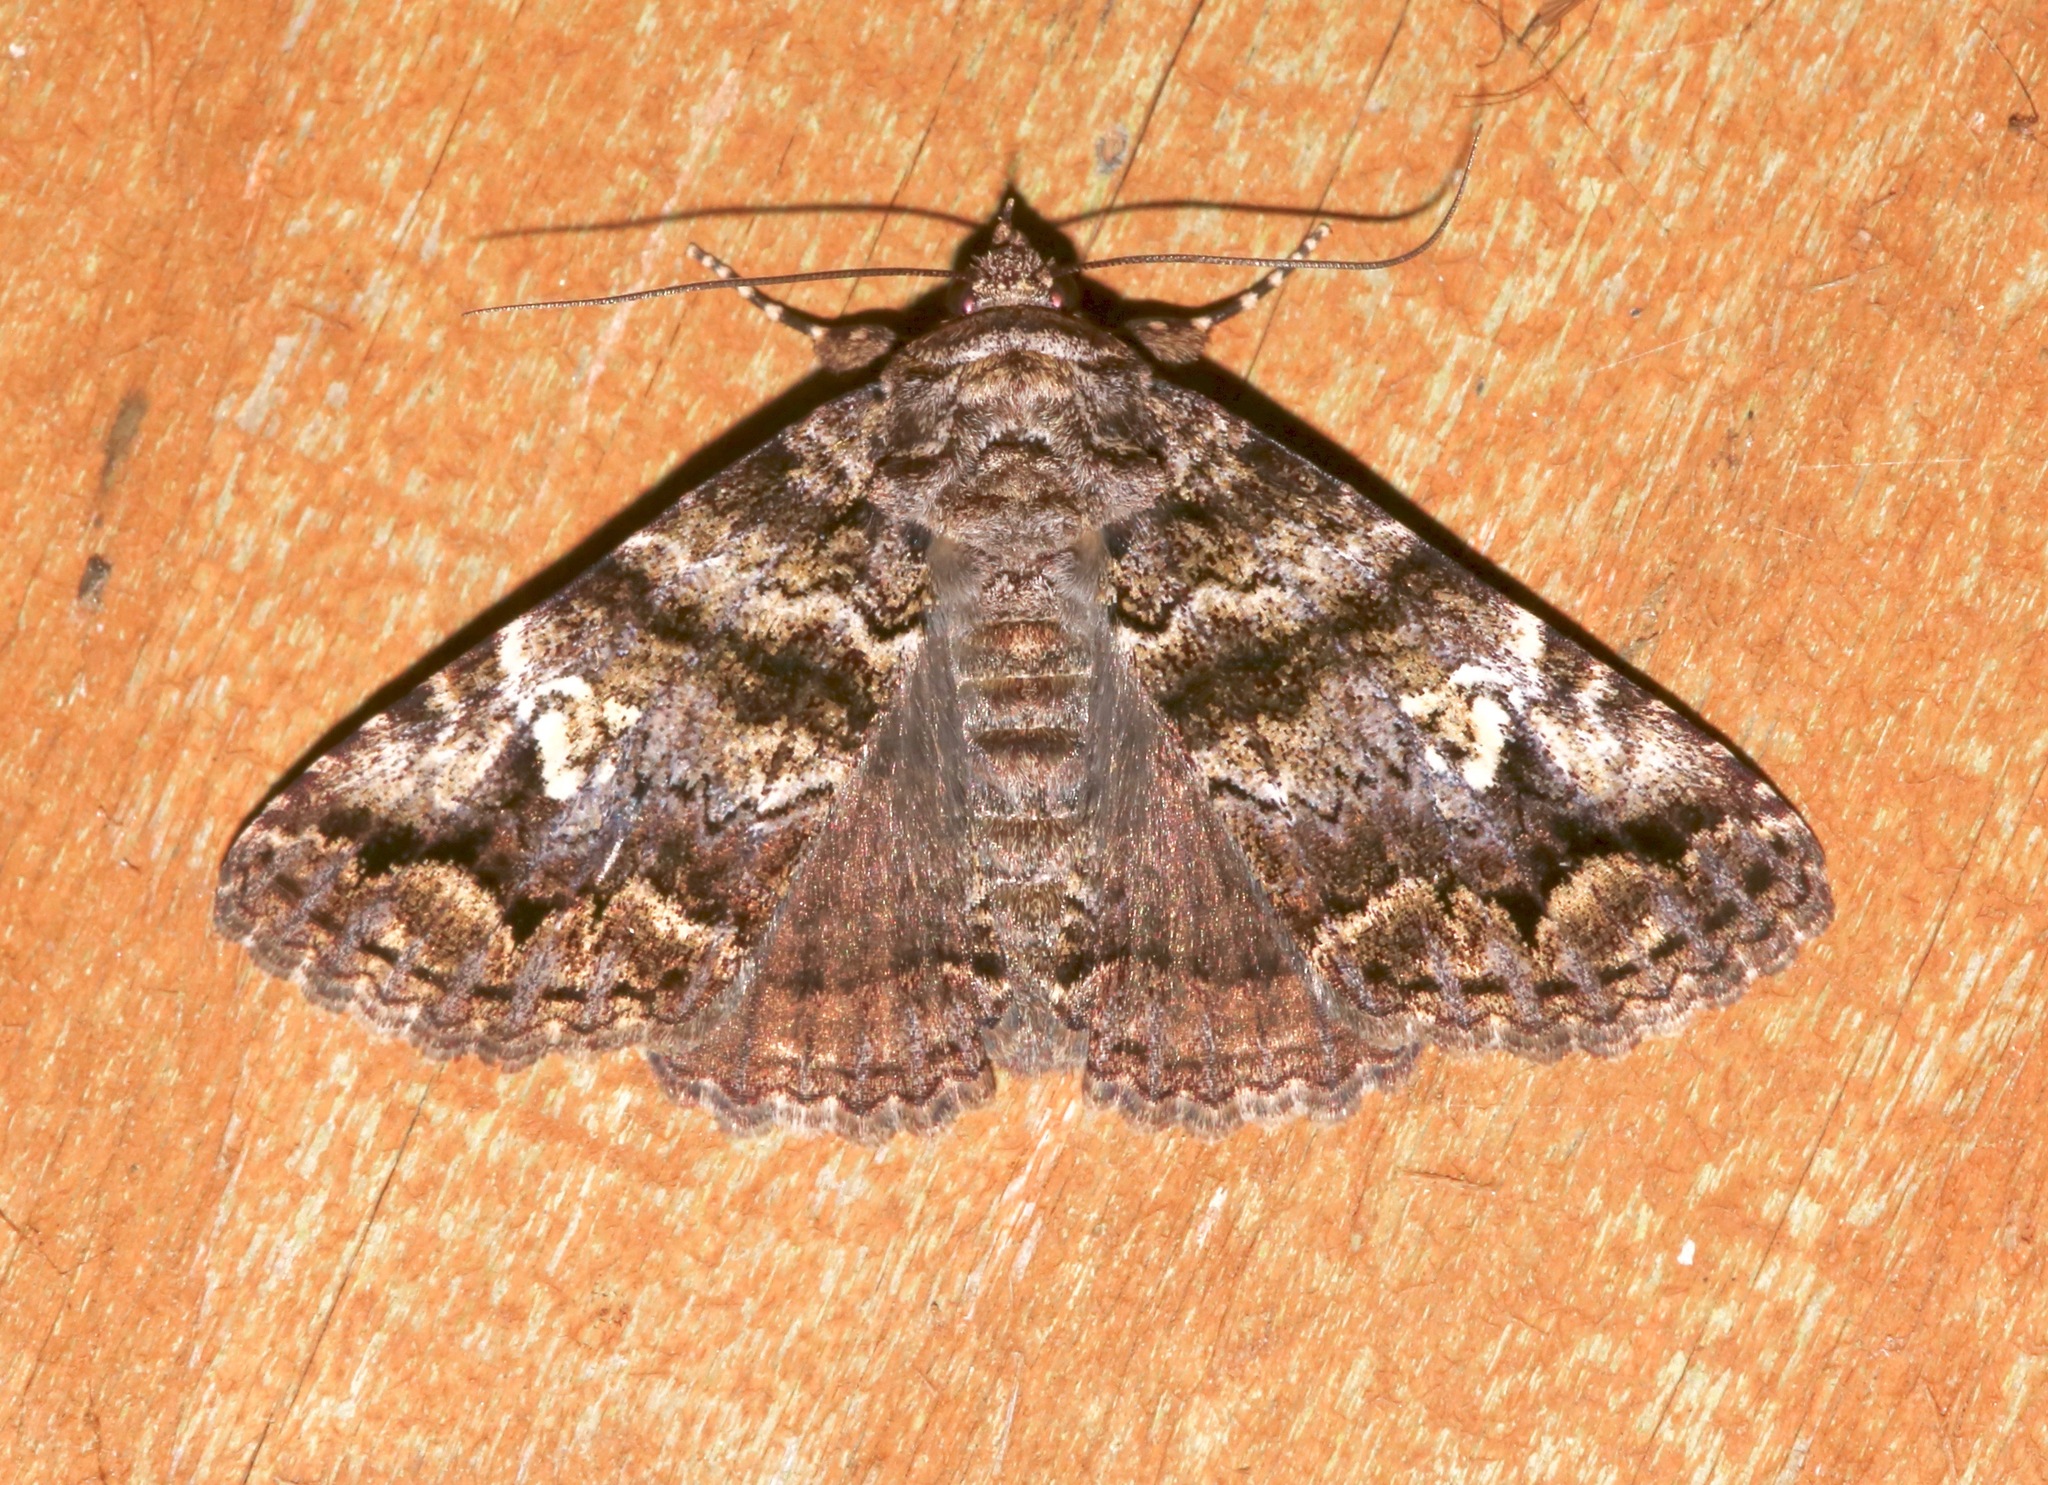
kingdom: Animalia
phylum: Arthropoda
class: Insecta
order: Lepidoptera
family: Erebidae
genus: Metria
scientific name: Metria amella
